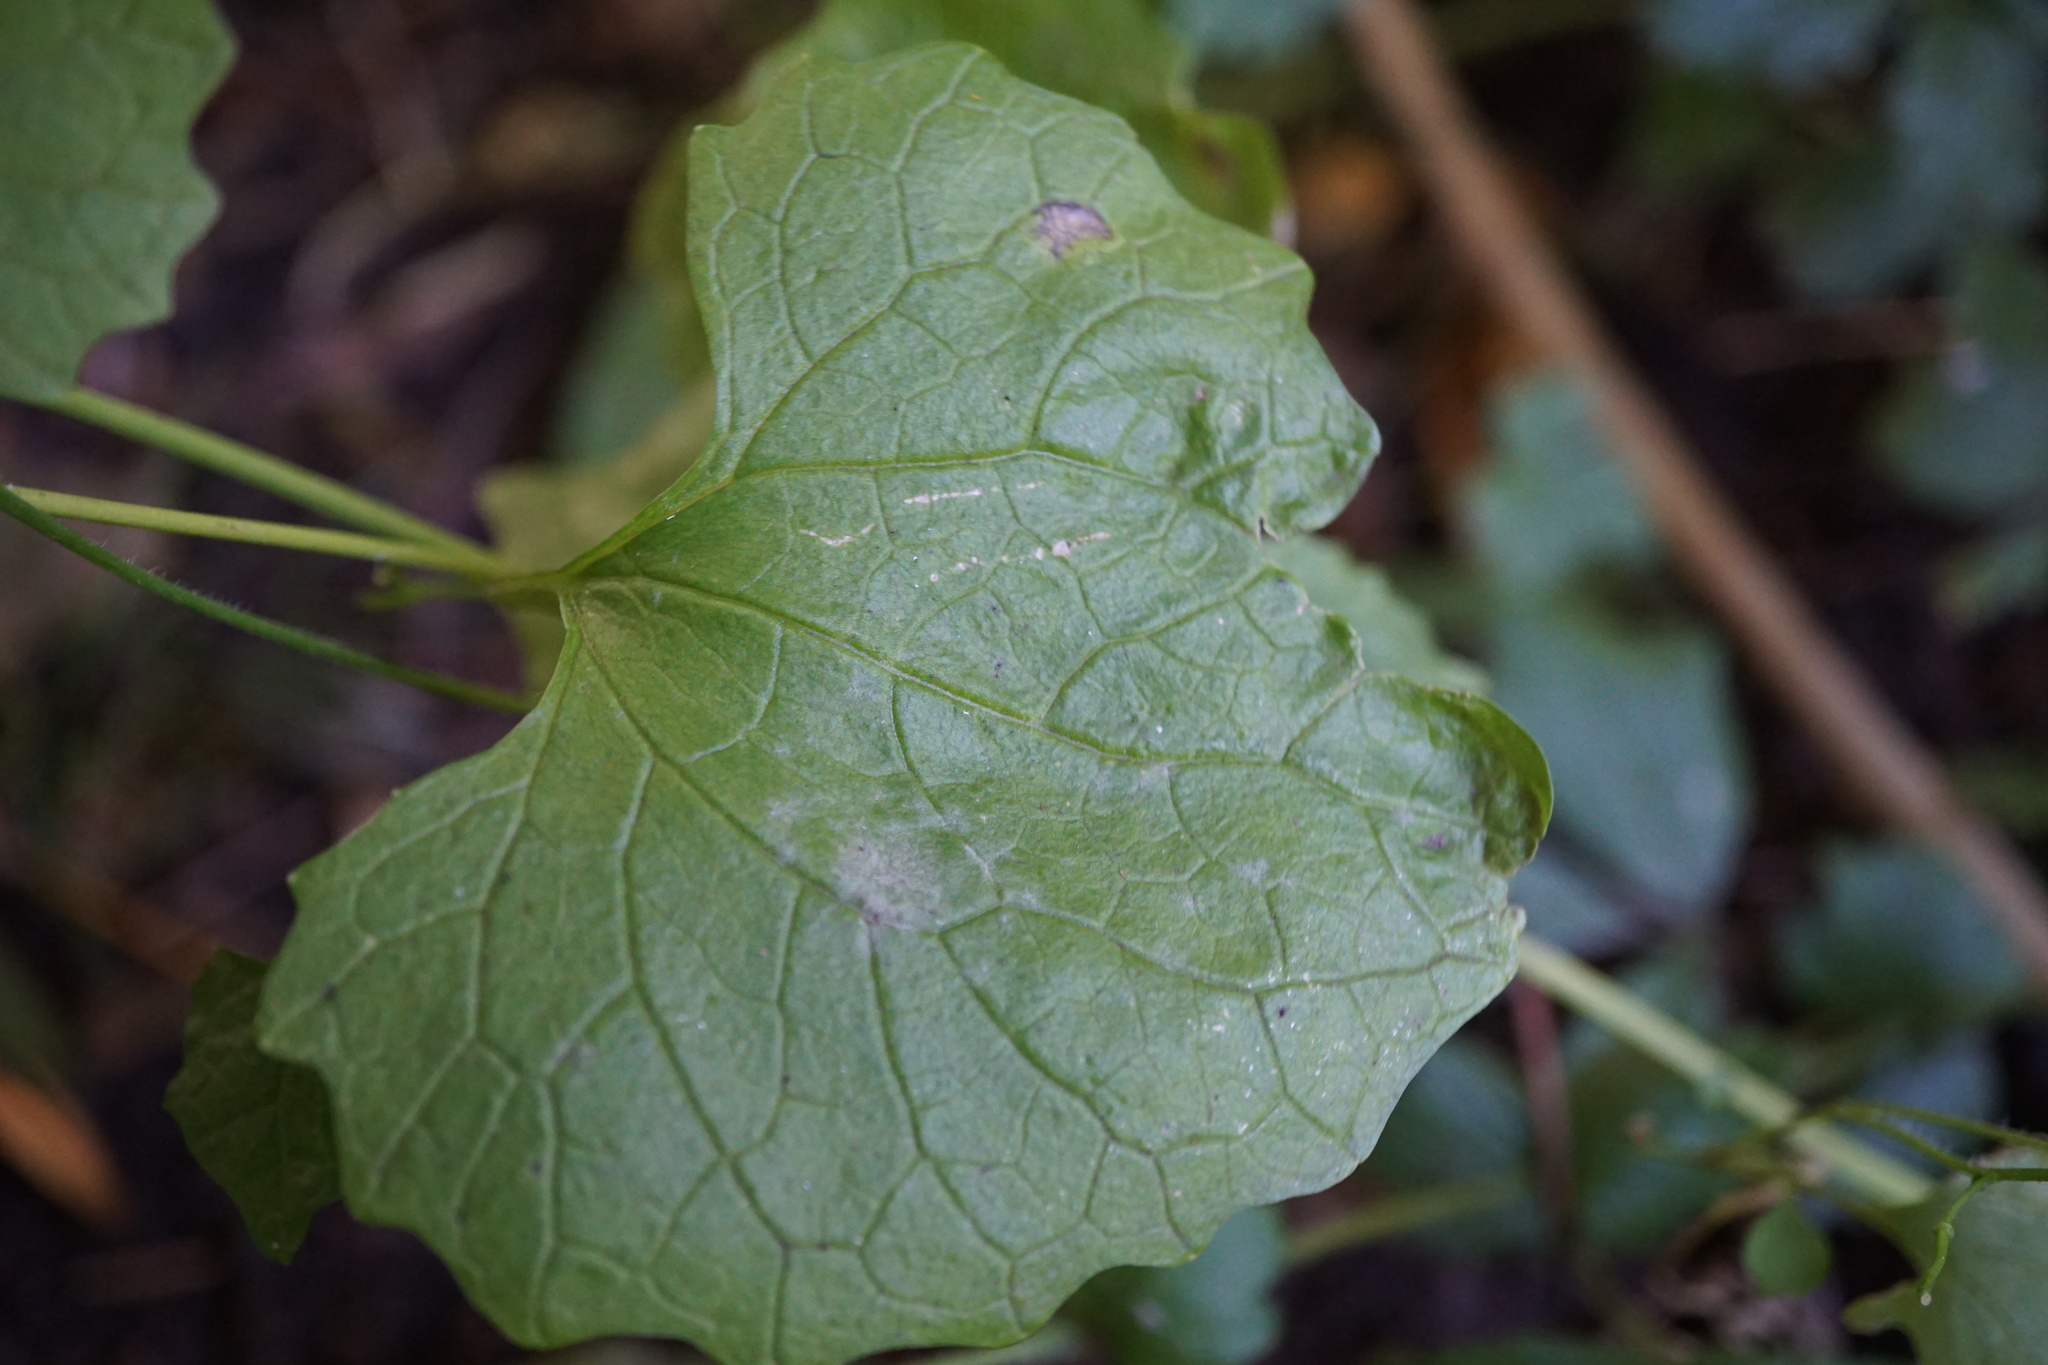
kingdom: Plantae
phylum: Tracheophyta
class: Magnoliopsida
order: Brassicales
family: Brassicaceae
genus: Alliaria
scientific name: Alliaria petiolata
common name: Garlic mustard
